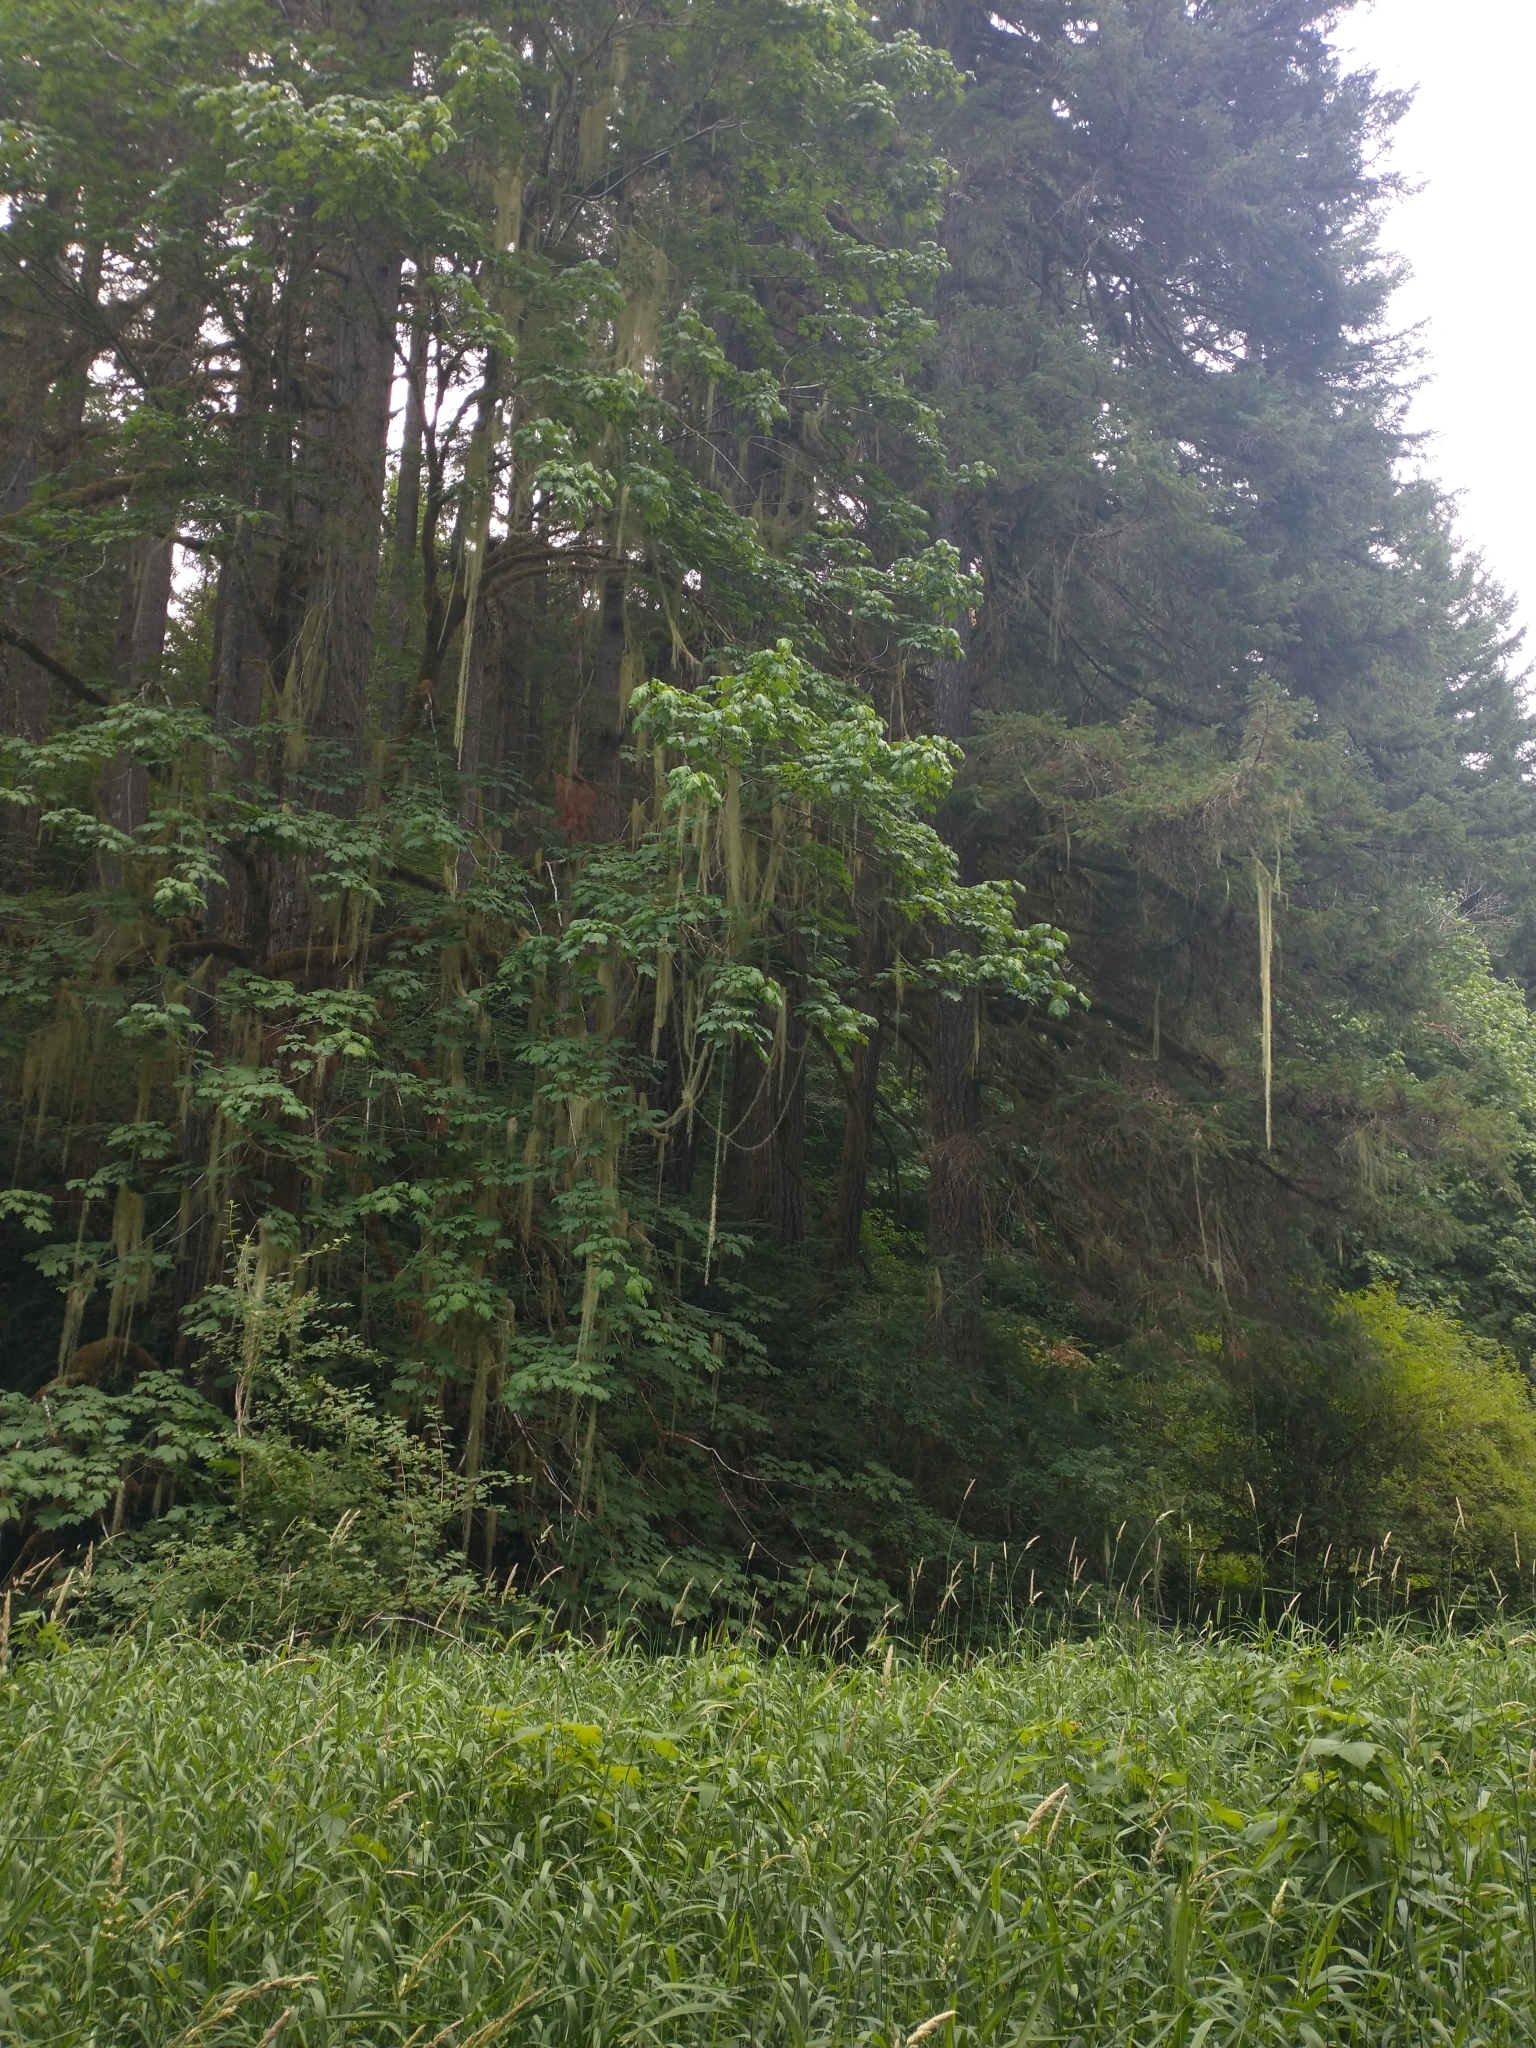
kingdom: Plantae
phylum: Tracheophyta
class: Magnoliopsida
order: Sapindales
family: Sapindaceae
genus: Acer
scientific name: Acer macrophyllum
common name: Oregon maple
